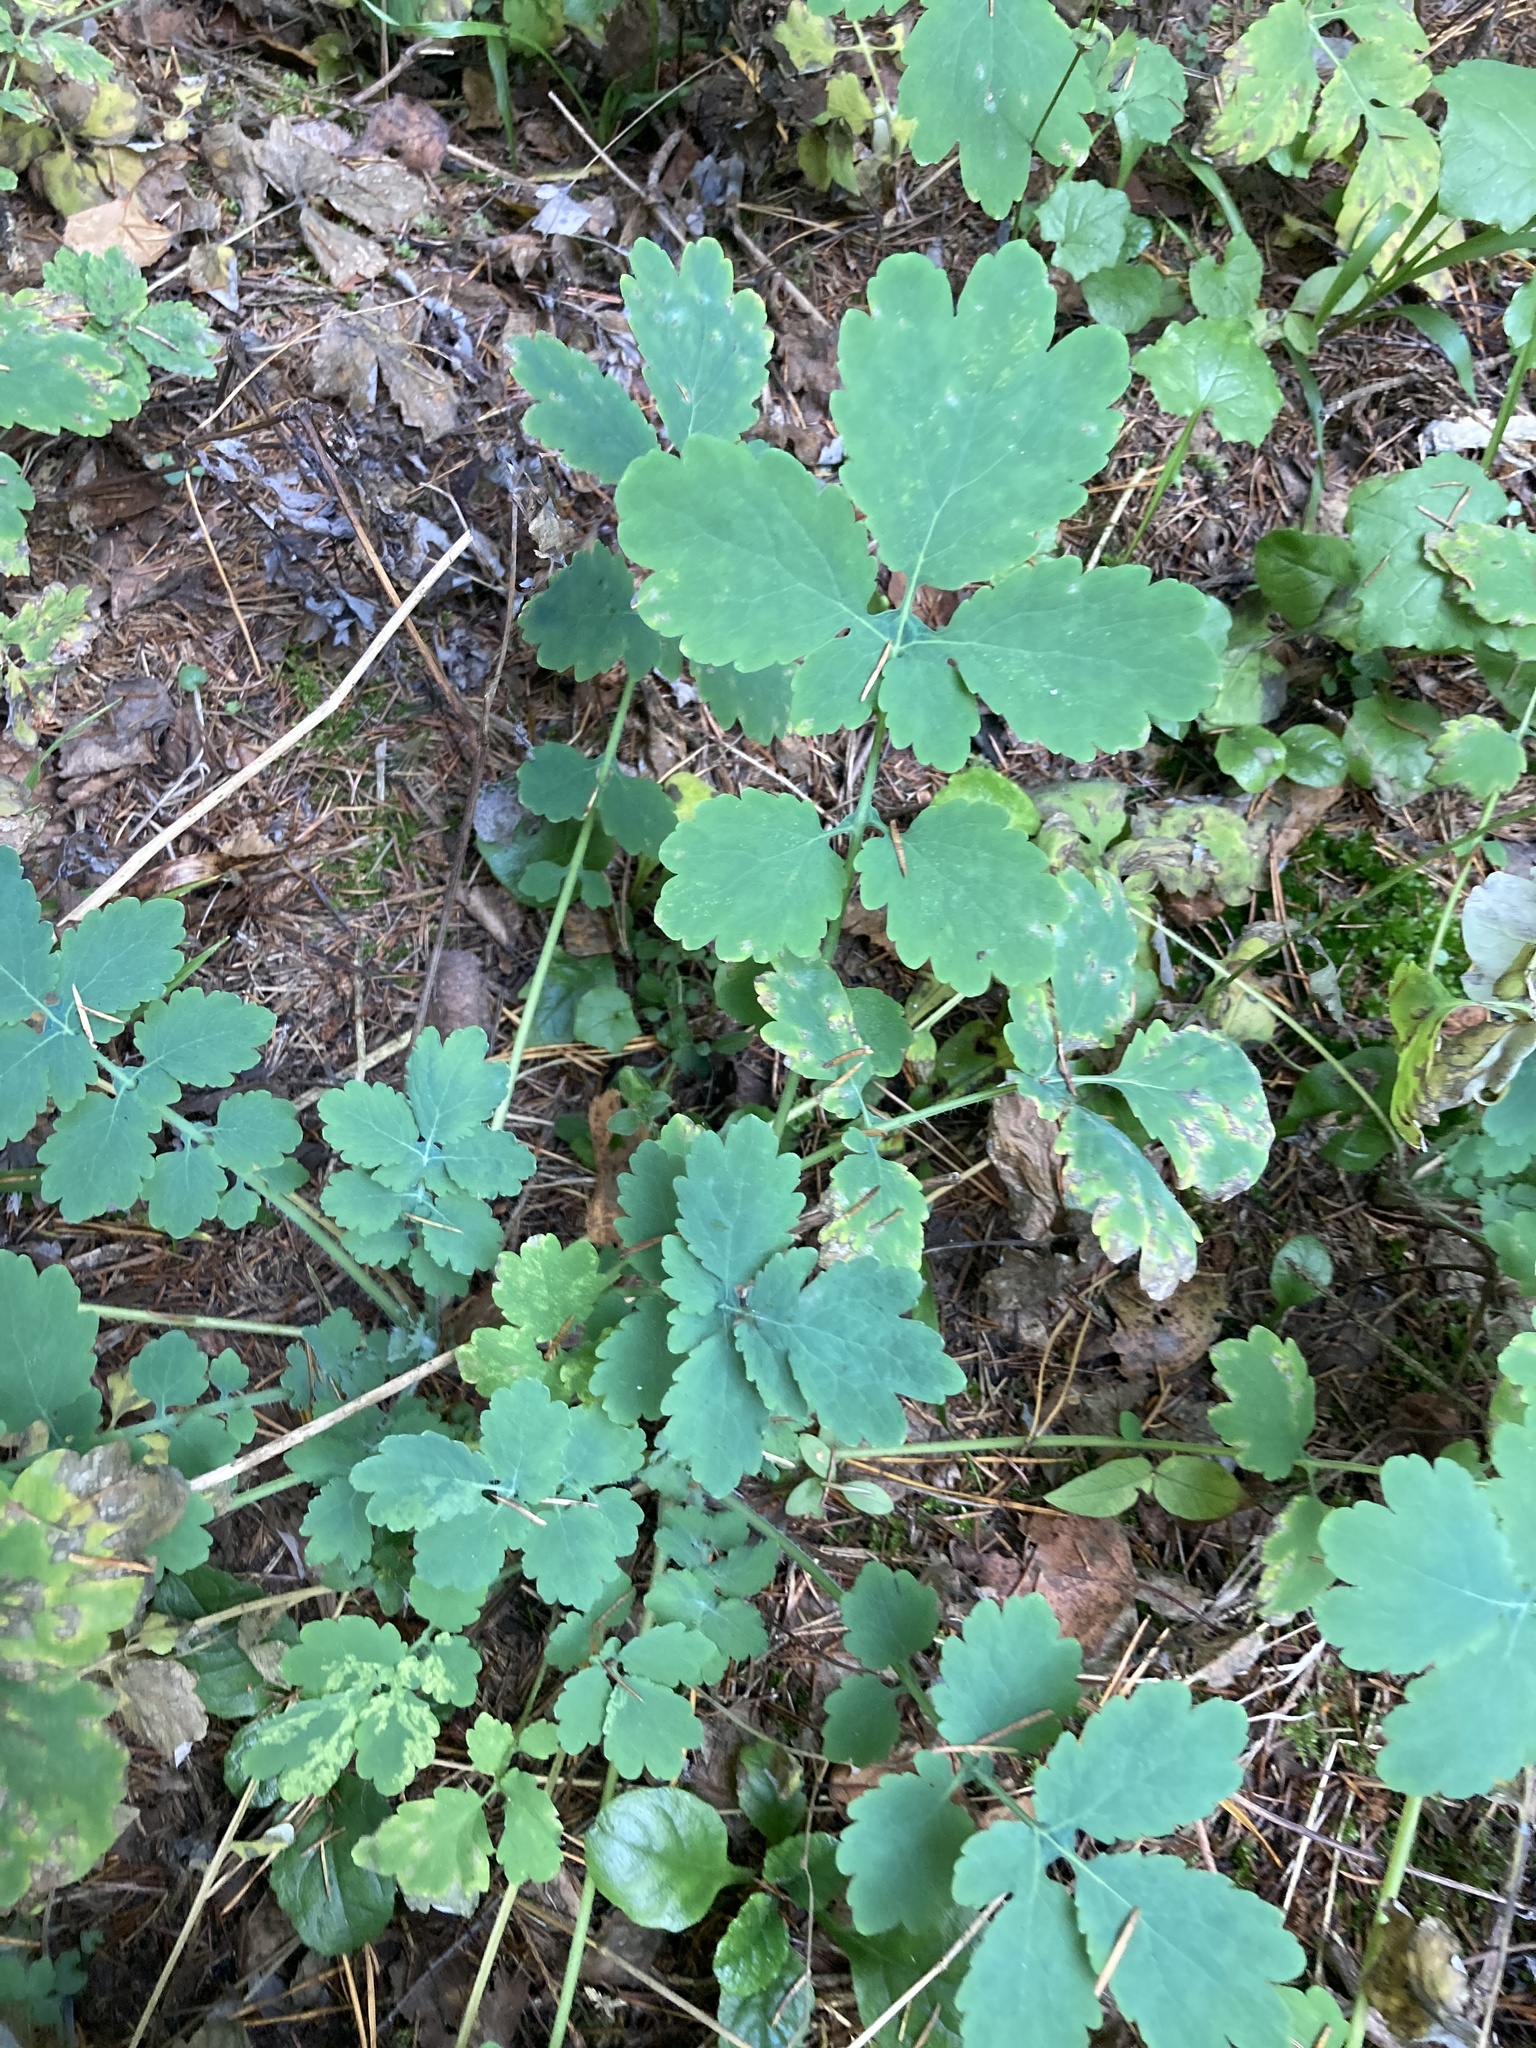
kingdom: Plantae
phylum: Tracheophyta
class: Magnoliopsida
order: Ranunculales
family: Papaveraceae
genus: Chelidonium
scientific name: Chelidonium majus
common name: Greater celandine
